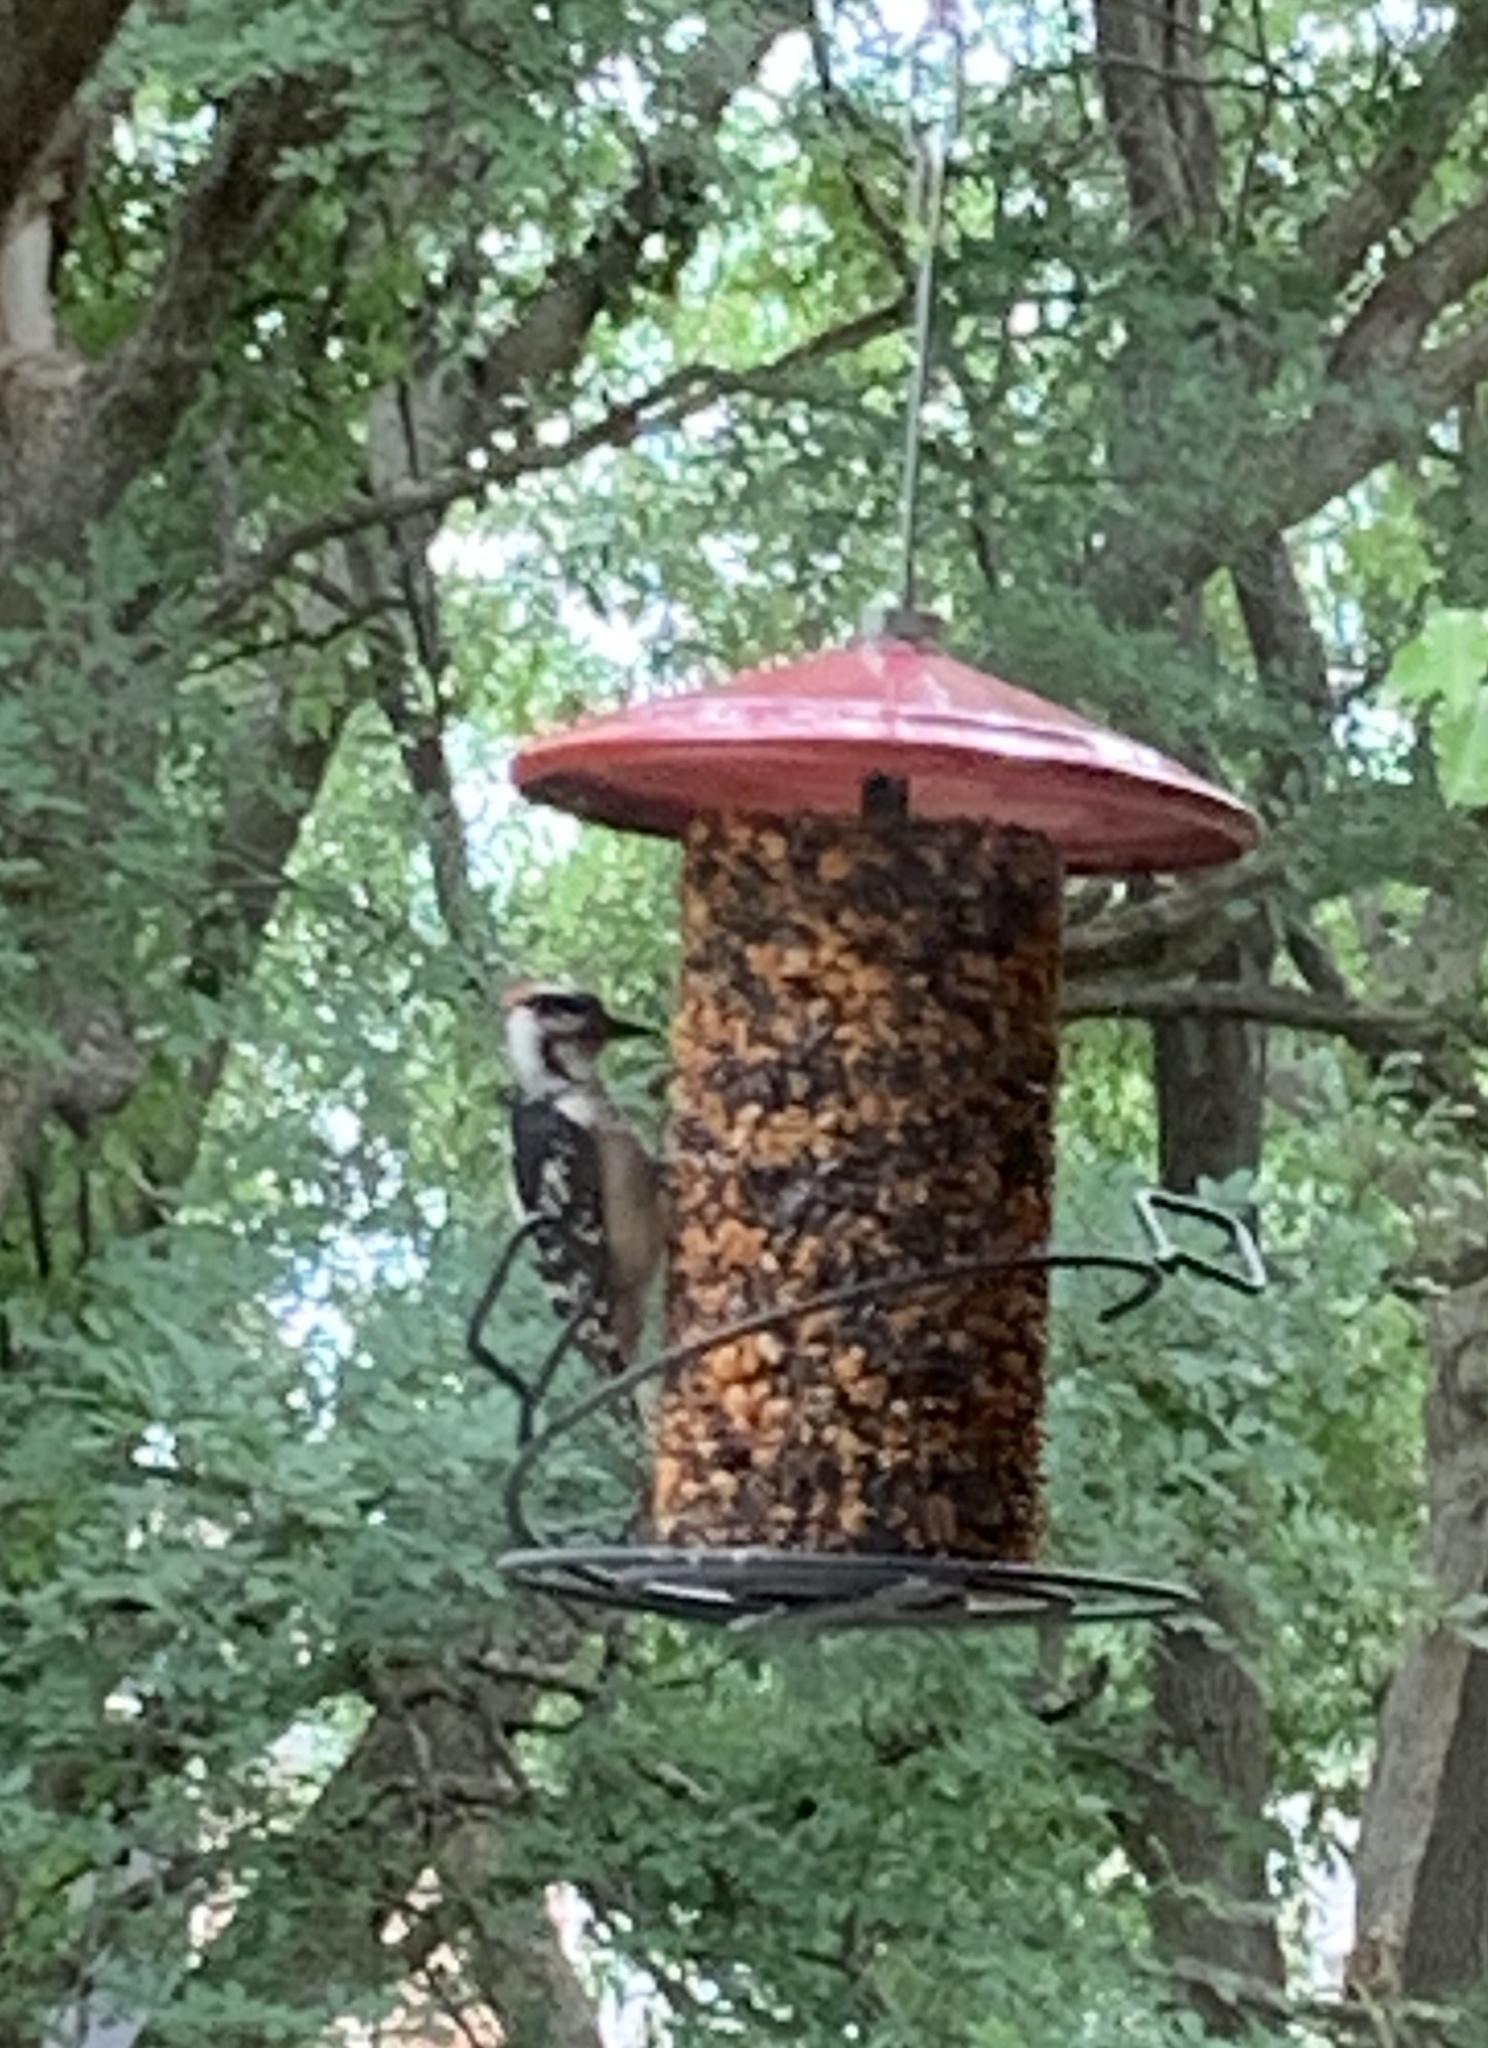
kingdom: Animalia
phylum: Chordata
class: Aves
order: Piciformes
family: Picidae
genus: Dryobates
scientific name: Dryobates pubescens
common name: Downy woodpecker
